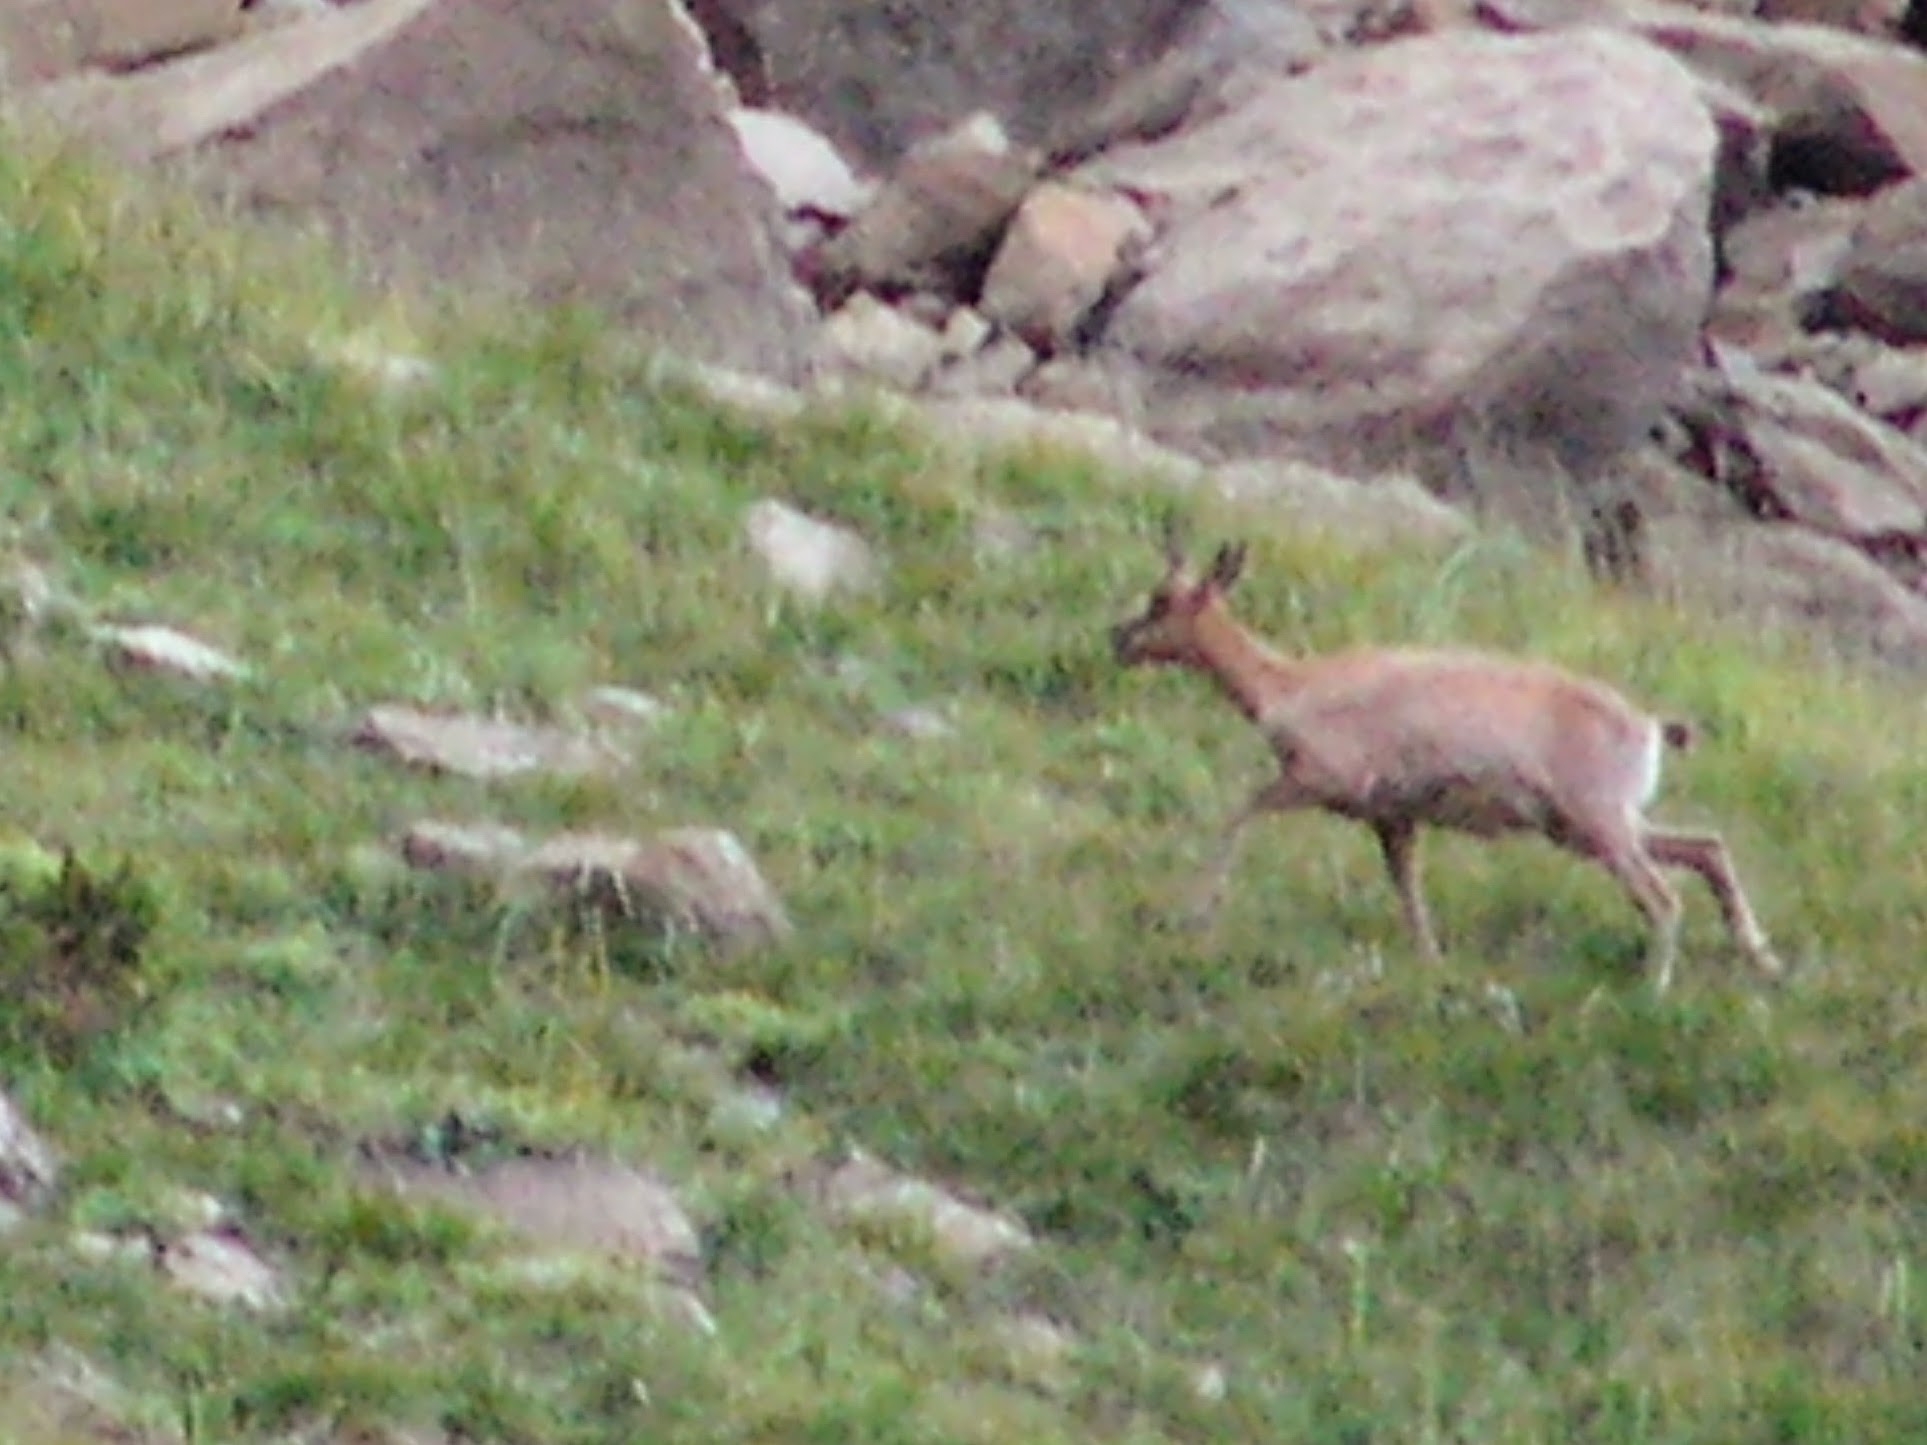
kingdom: Animalia
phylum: Chordata
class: Mammalia
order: Artiodactyla
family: Bovidae
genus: Rupicapra
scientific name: Rupicapra pyrenaica
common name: Pyrenean chamois
